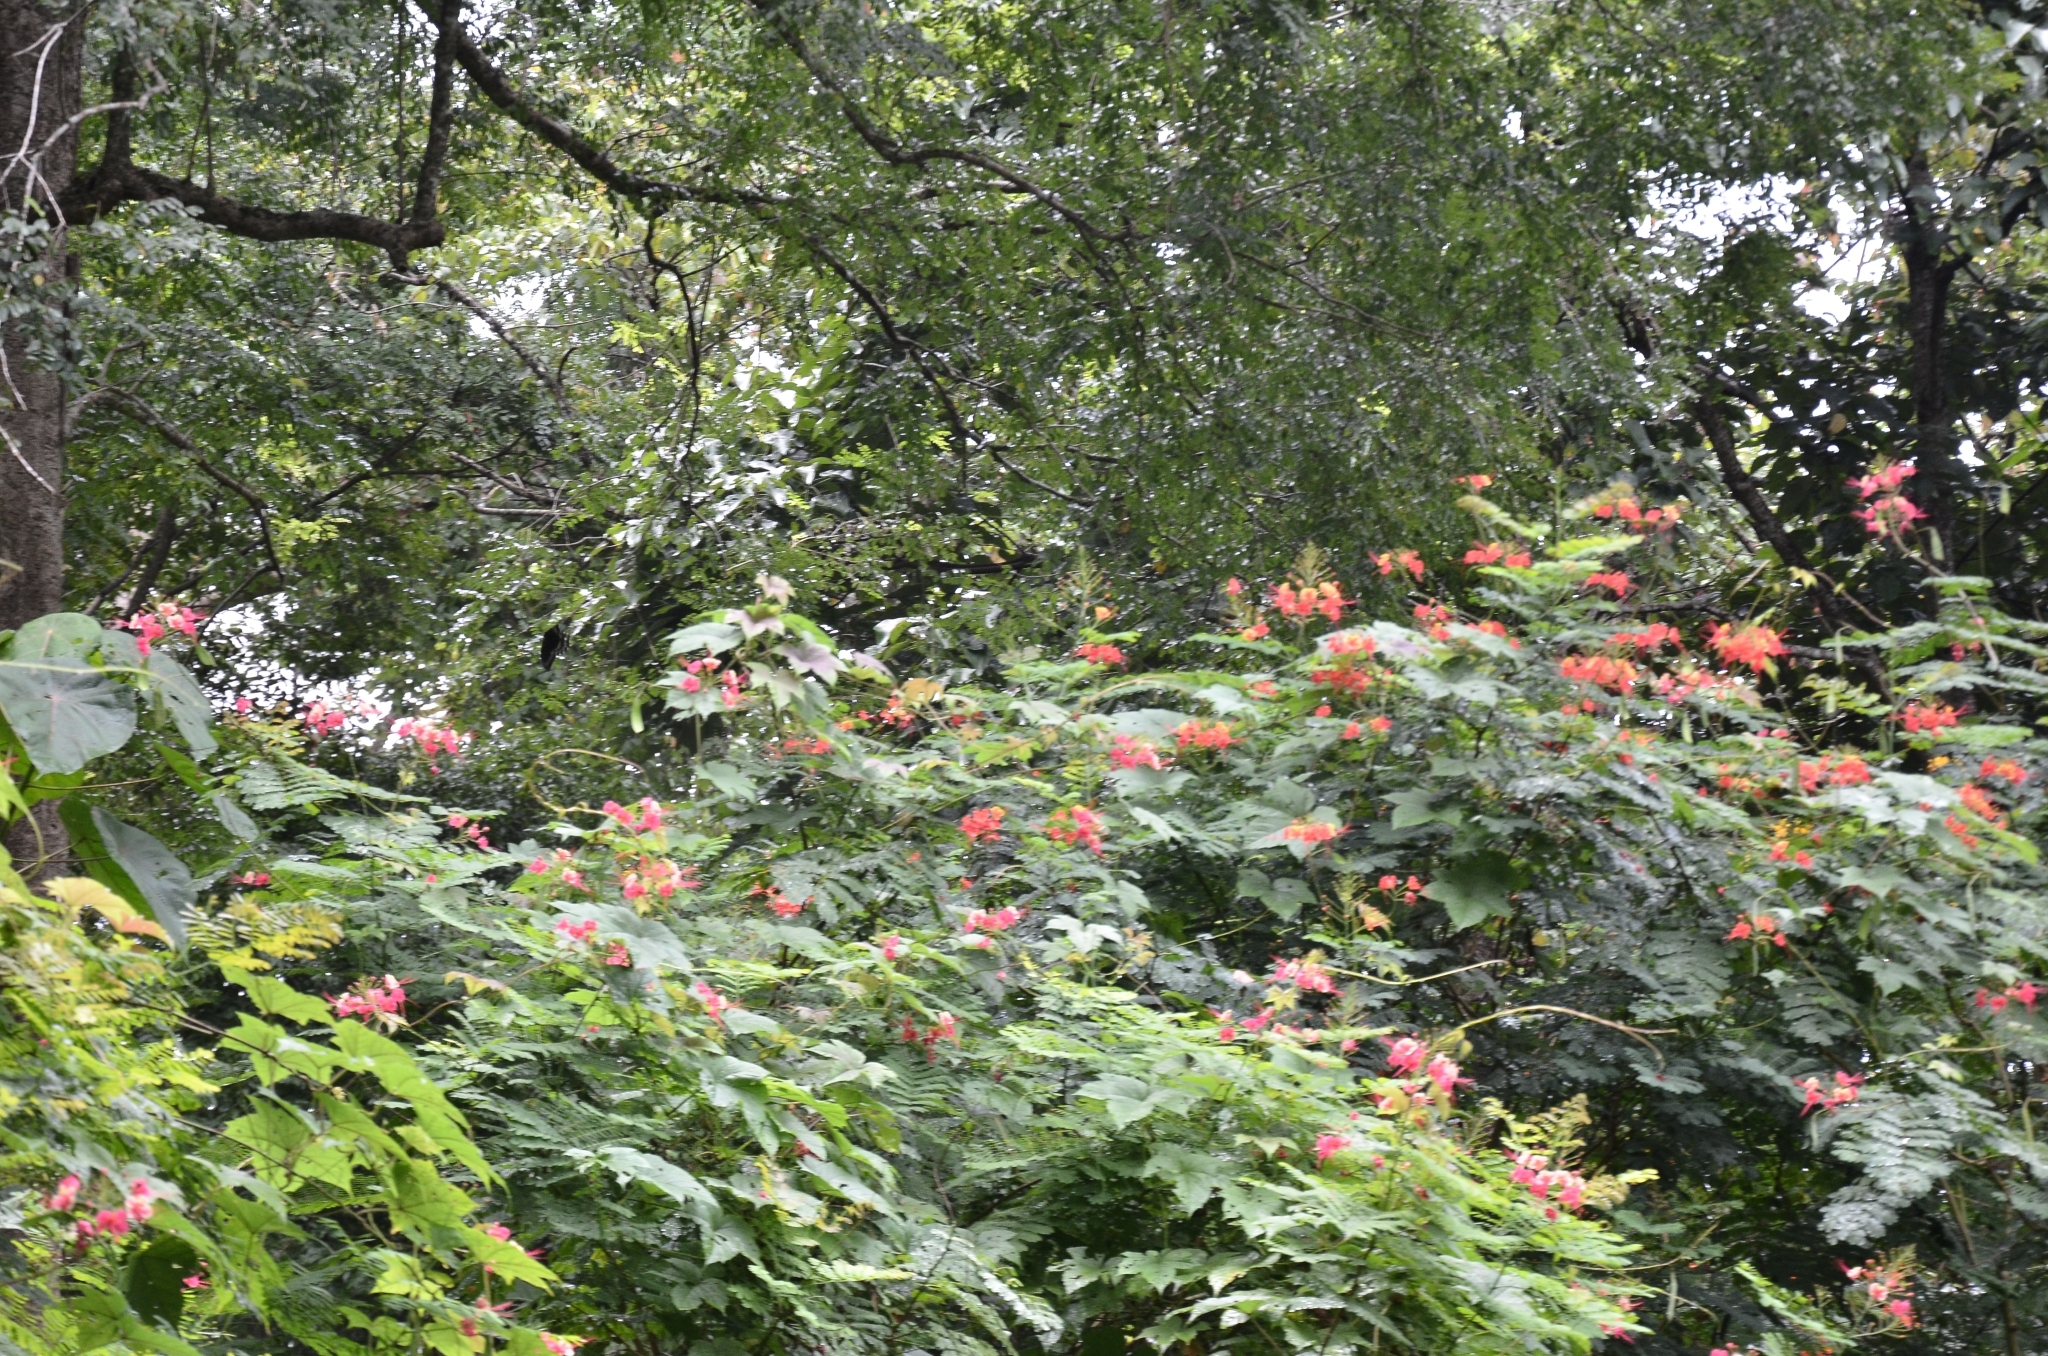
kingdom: Plantae
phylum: Tracheophyta
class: Magnoliopsida
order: Fabales
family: Fabaceae
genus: Caesalpinia
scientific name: Caesalpinia pulcherrima
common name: Pride-of-barbados
